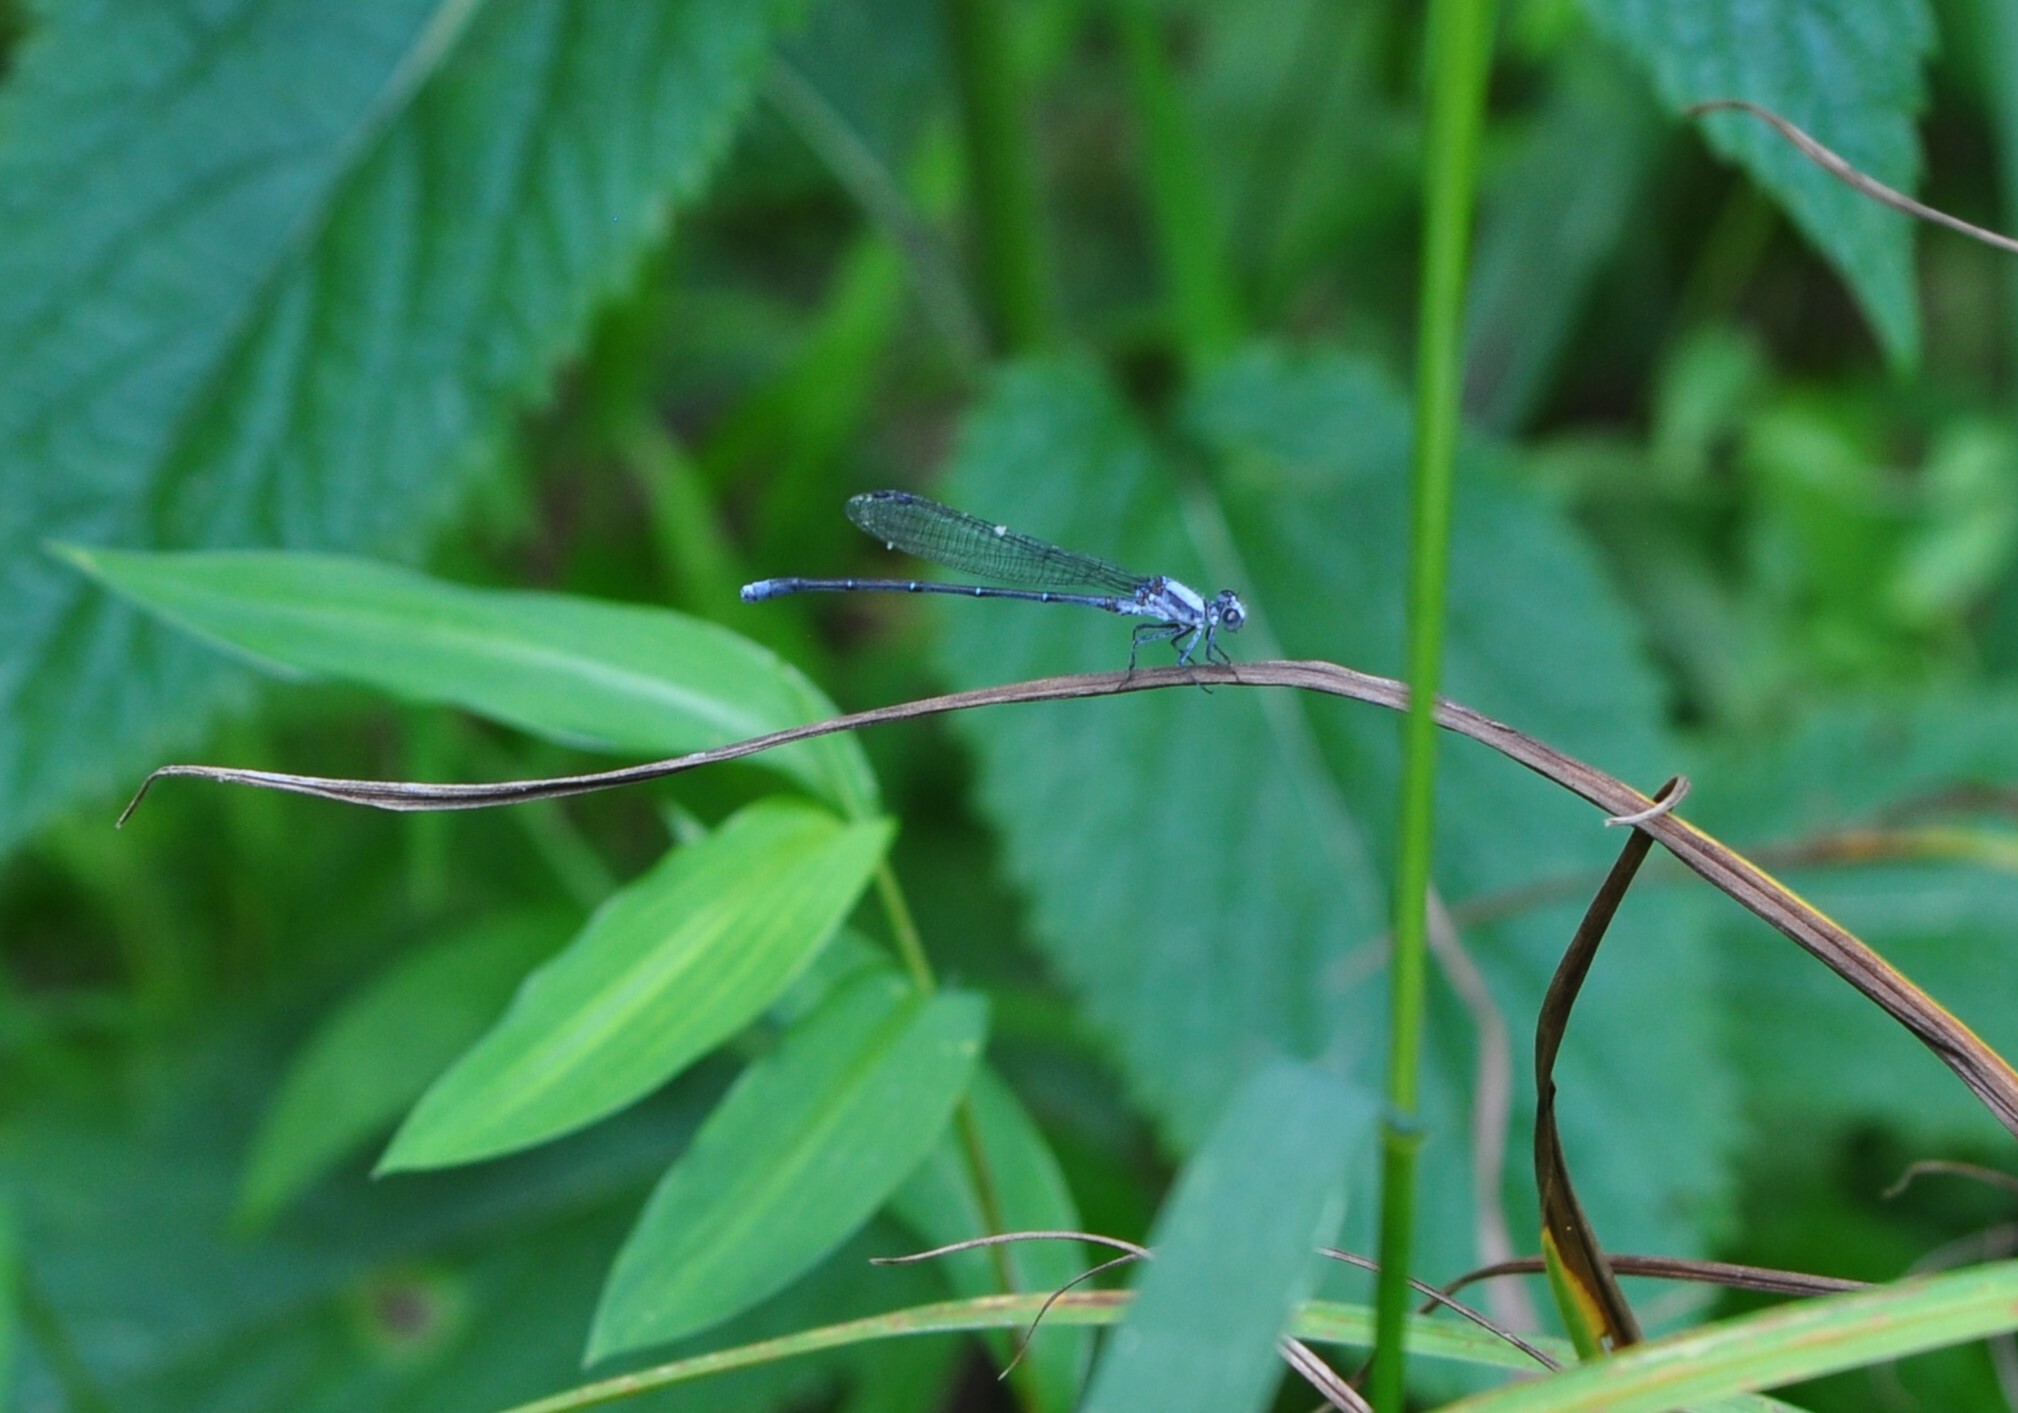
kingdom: Animalia
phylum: Arthropoda
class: Insecta
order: Odonata
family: Coenagrionidae
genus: Argia
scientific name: Argia moesta
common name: Powdered dancer
